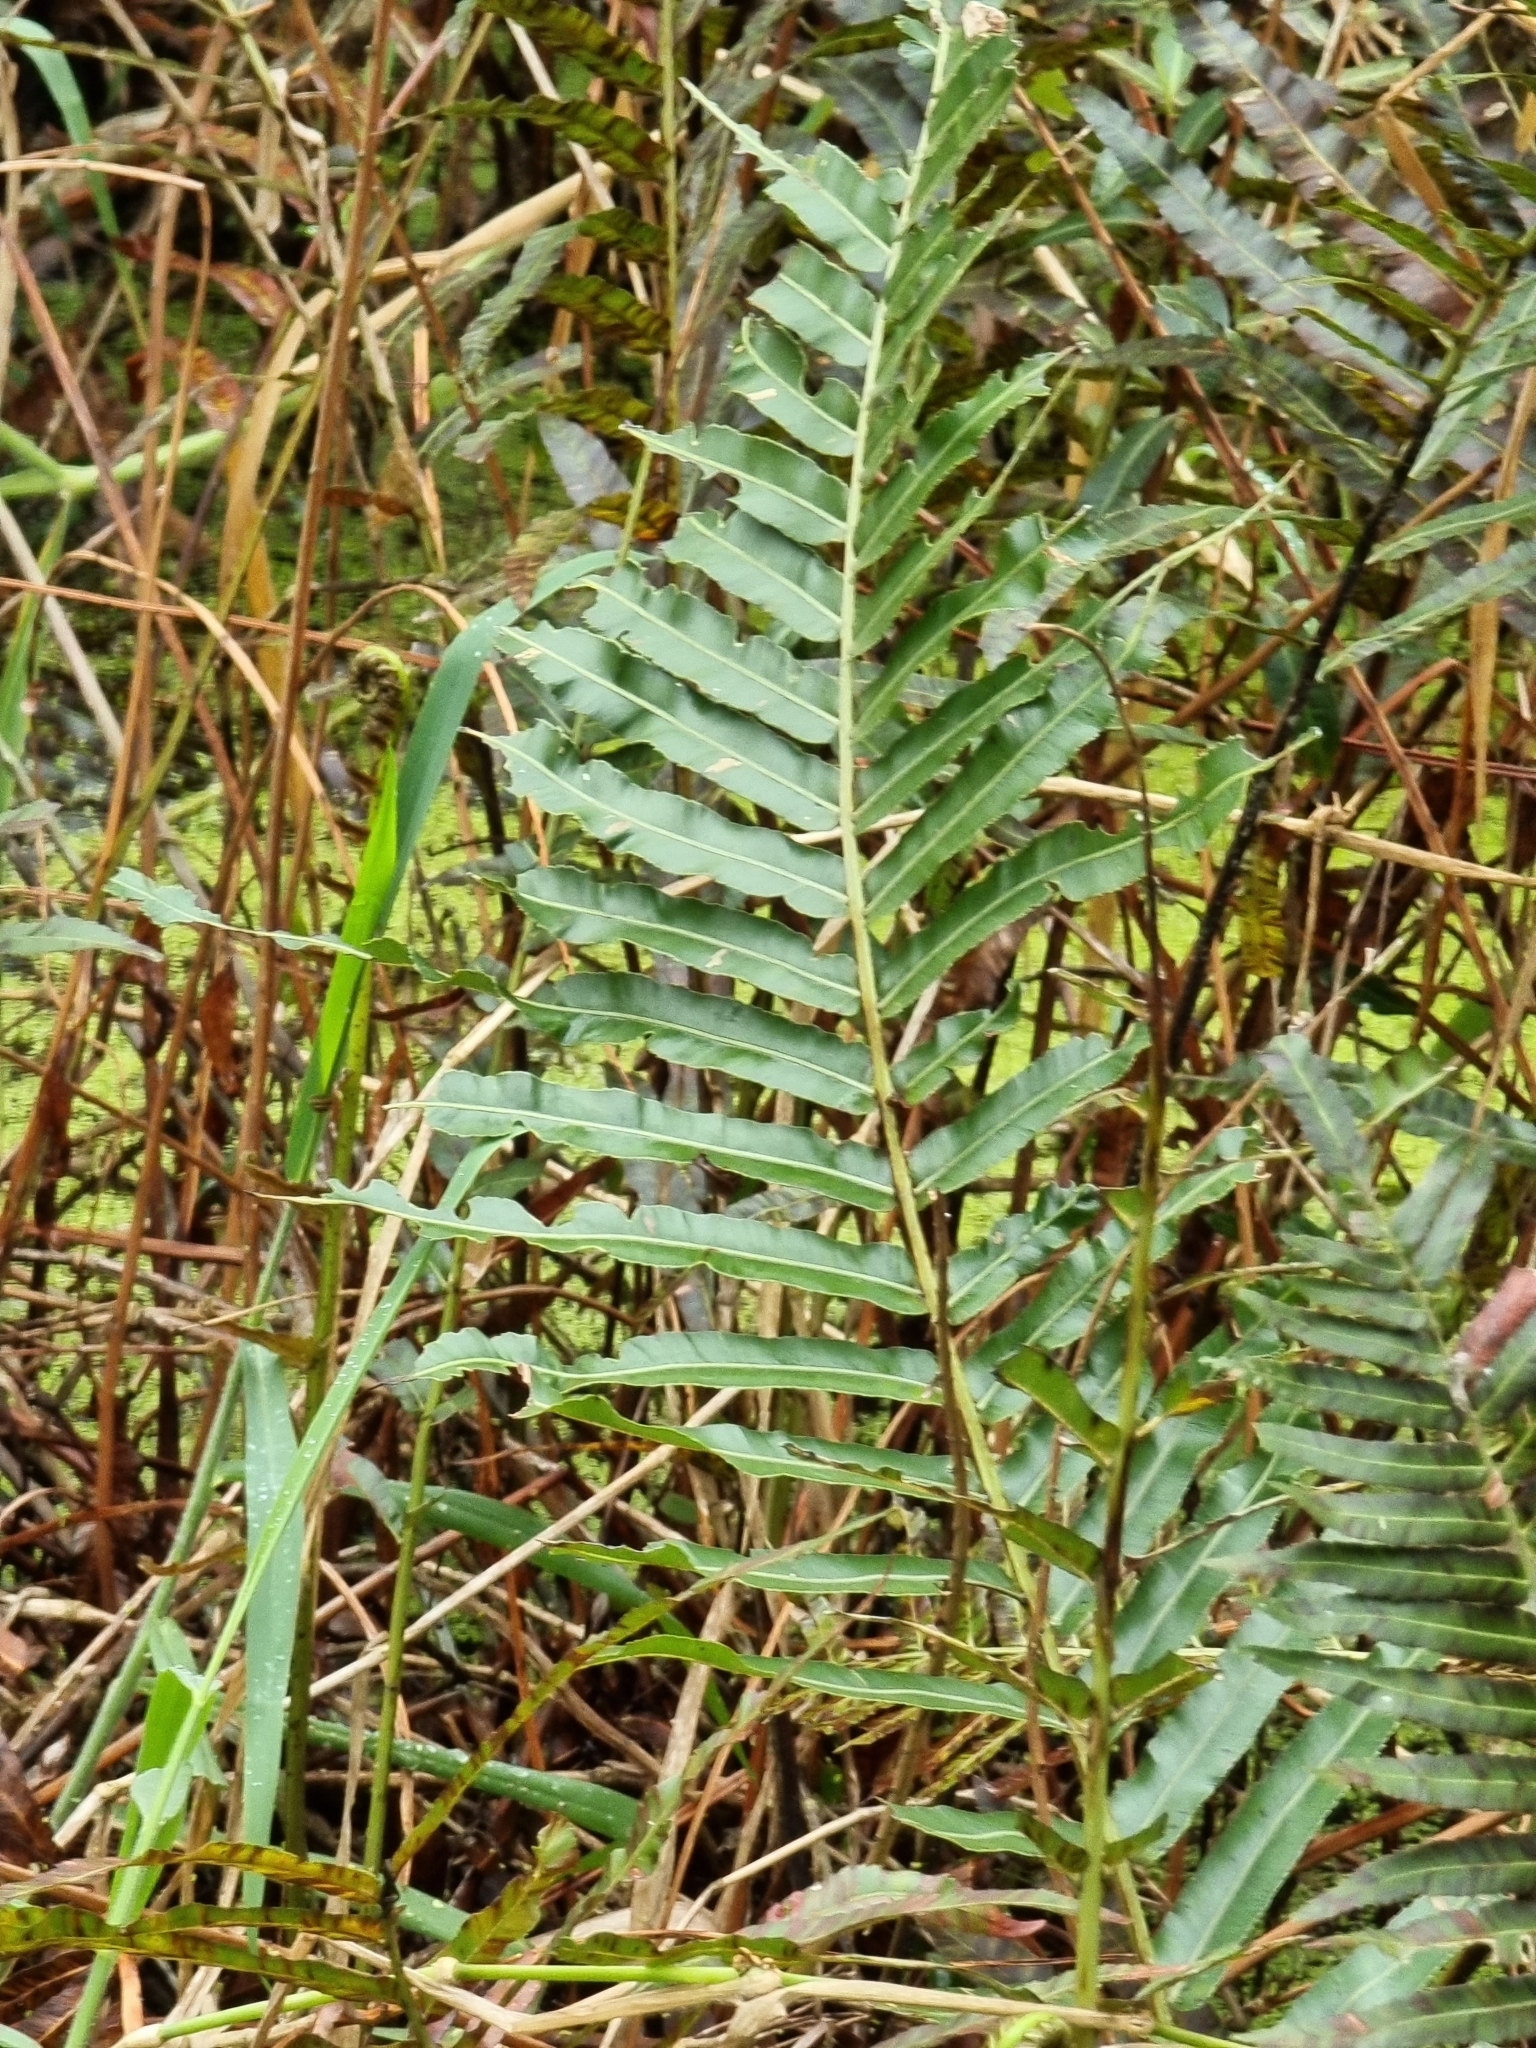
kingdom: Plantae
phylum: Tracheophyta
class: Polypodiopsida
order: Polypodiales
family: Blechnaceae
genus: Telmatoblechnum
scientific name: Telmatoblechnum indicum
